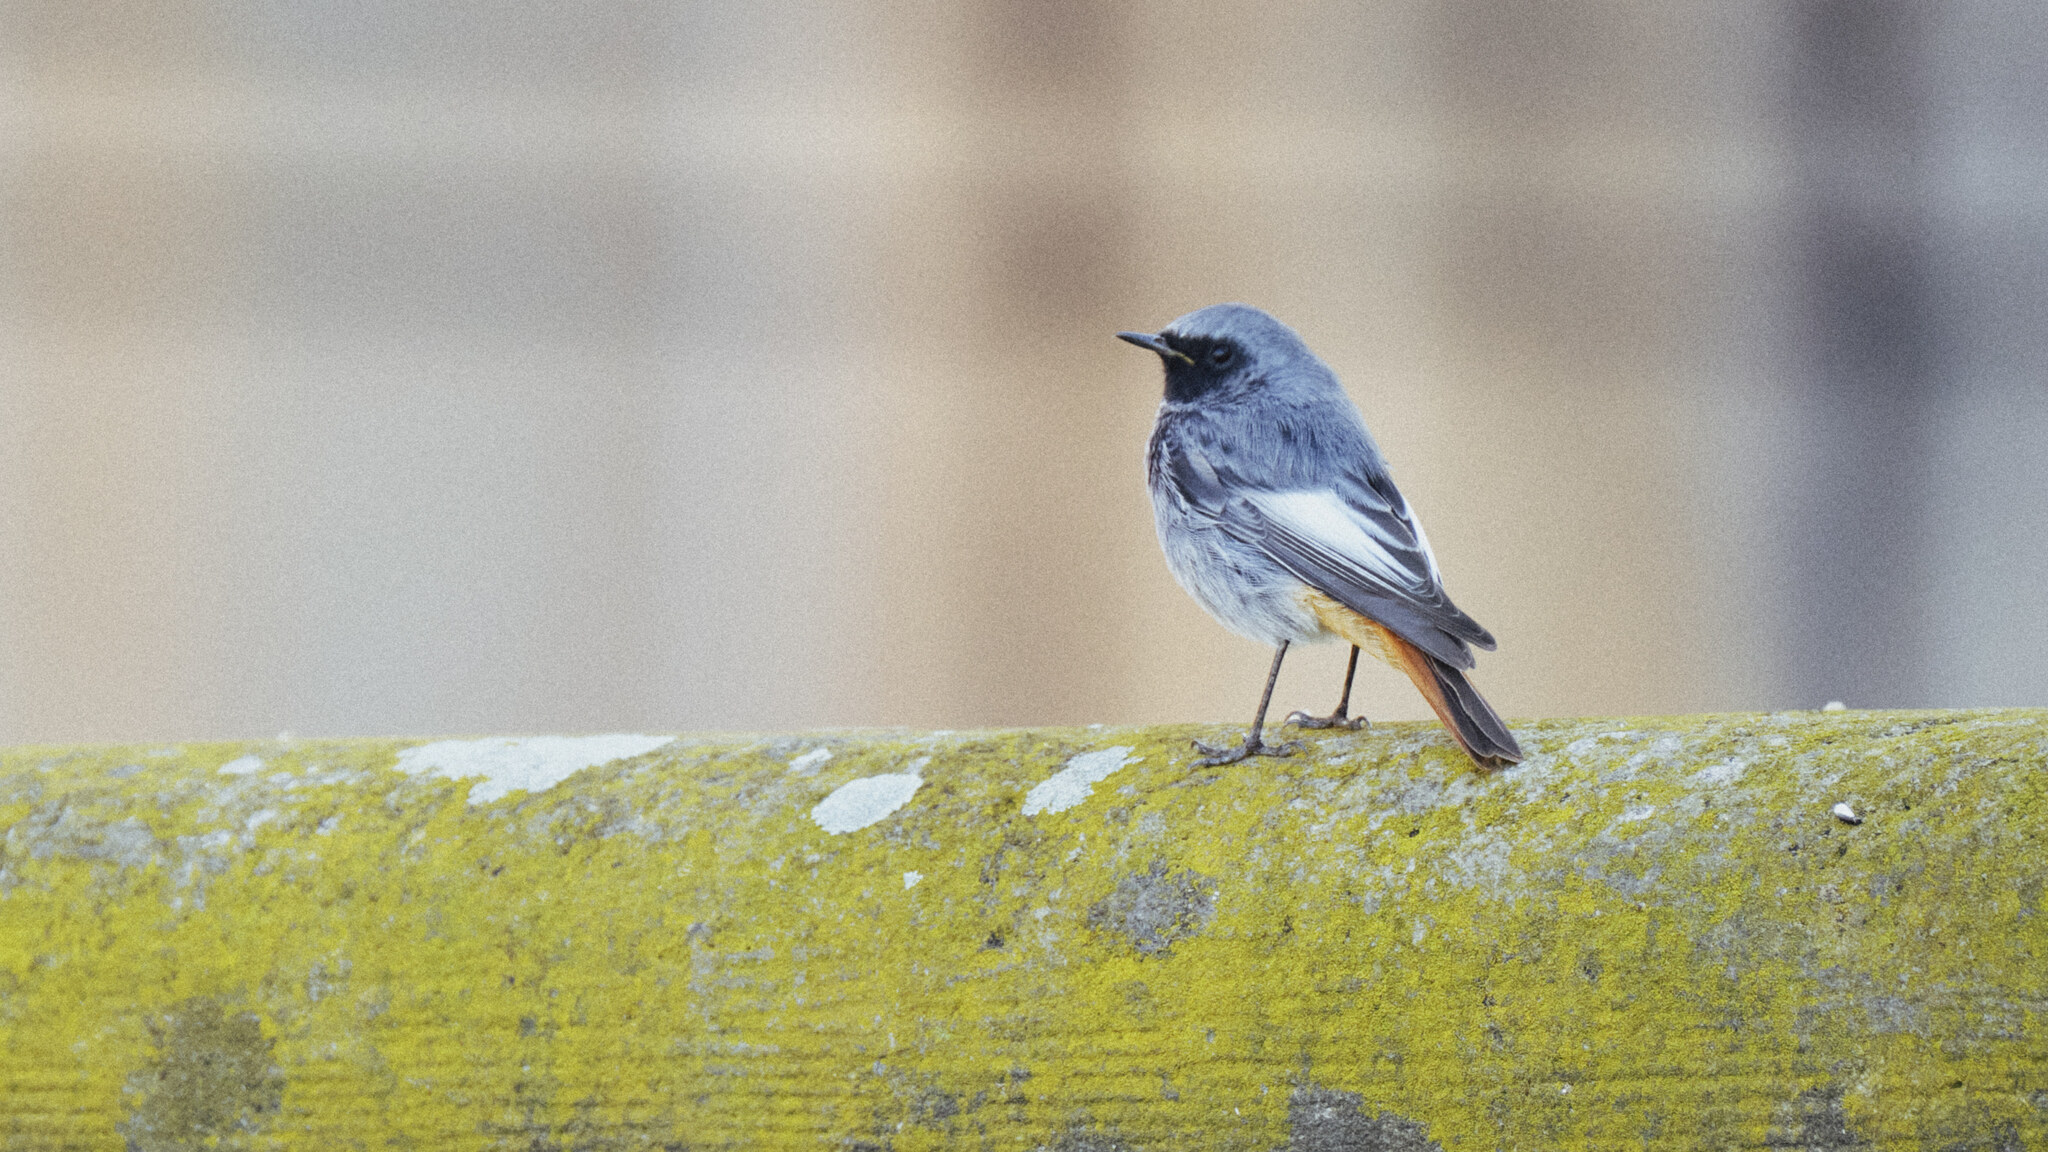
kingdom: Animalia
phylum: Chordata
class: Aves
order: Passeriformes
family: Muscicapidae
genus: Phoenicurus
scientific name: Phoenicurus ochruros
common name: Black redstart
